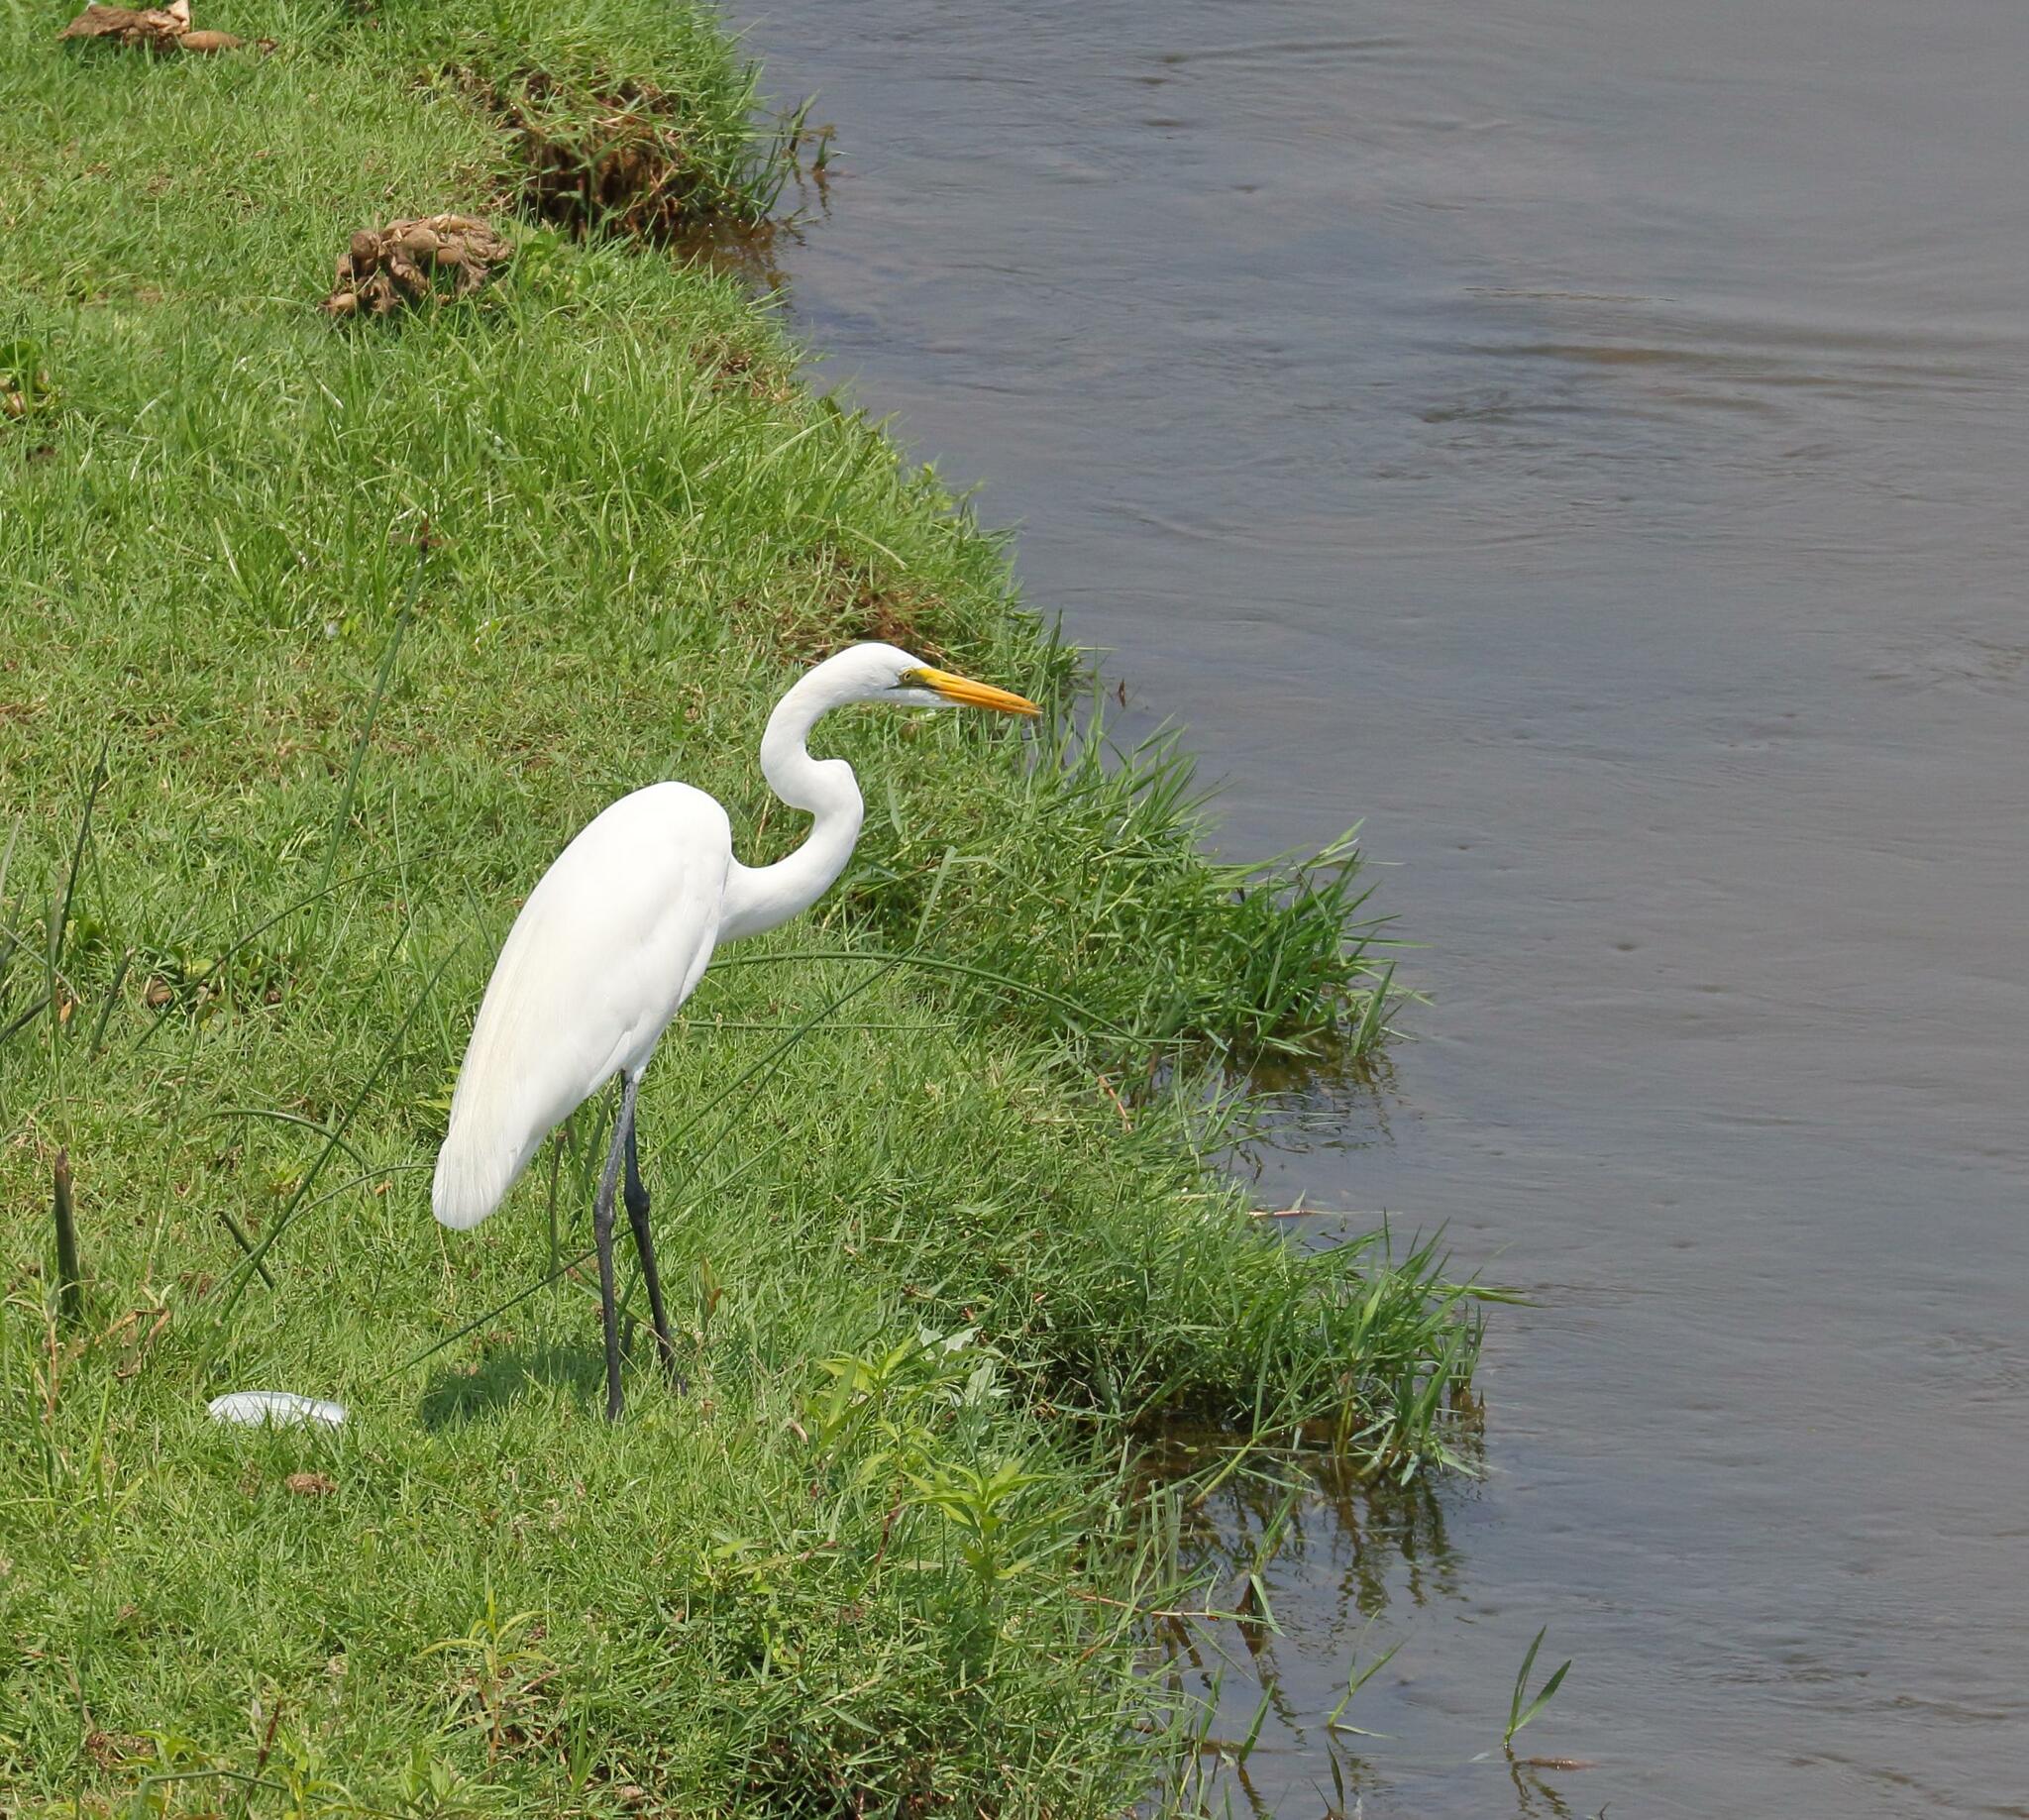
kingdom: Animalia
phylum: Chordata
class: Aves
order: Pelecaniformes
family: Ardeidae
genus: Ardea
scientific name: Ardea alba
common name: Great egret
